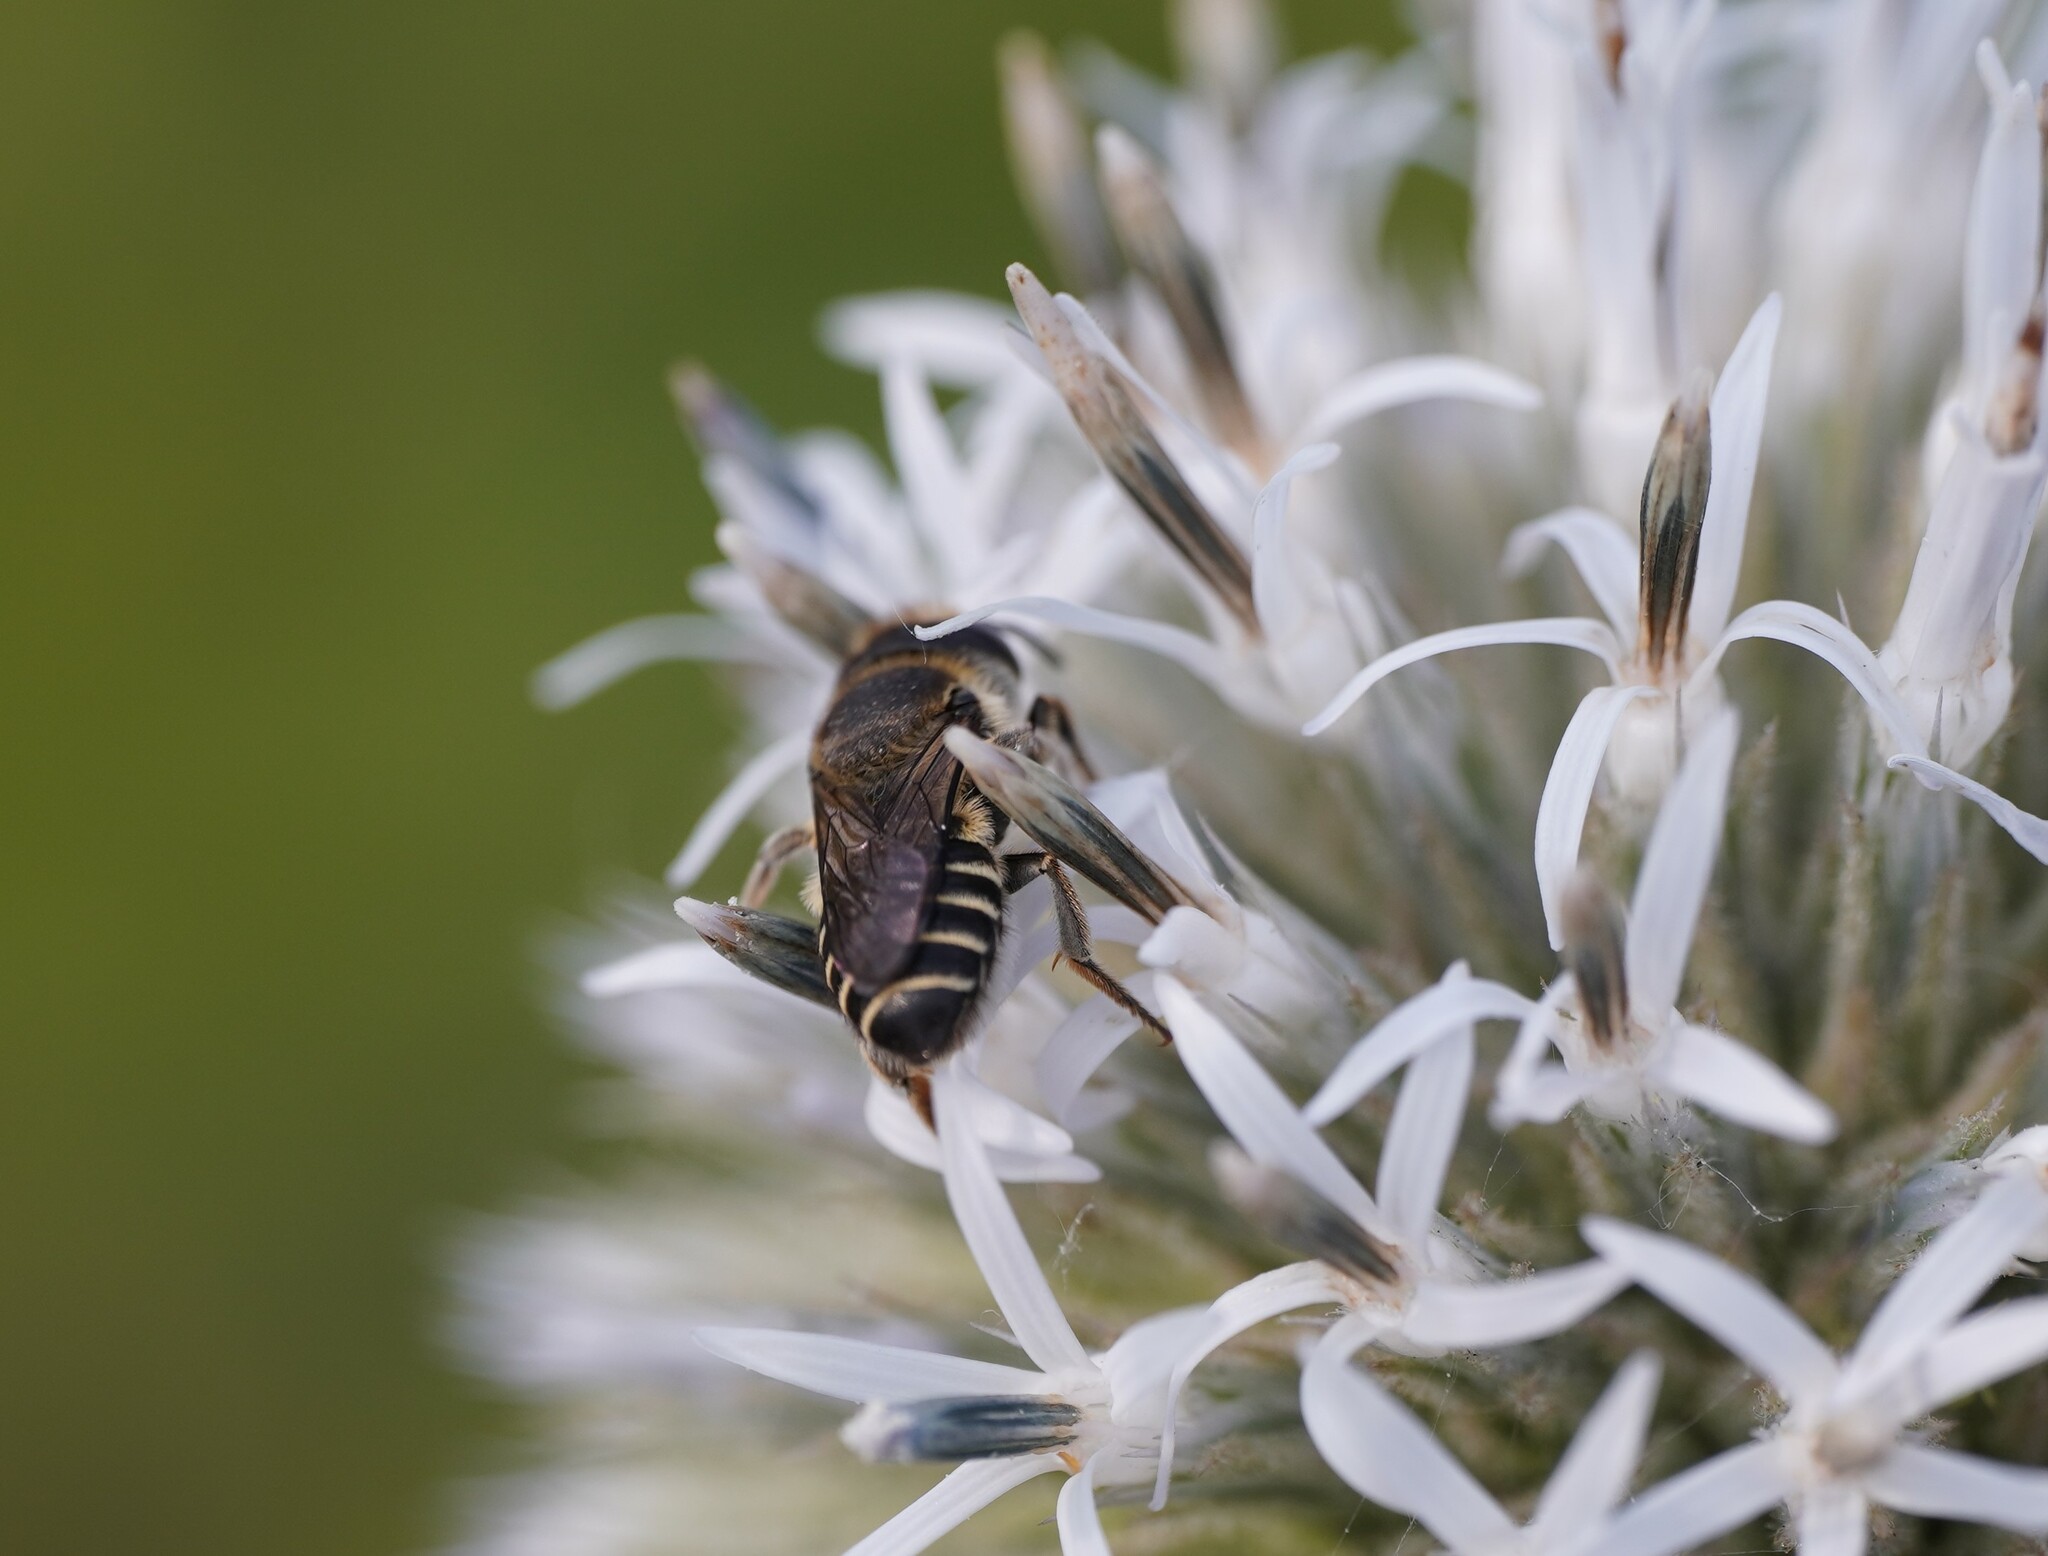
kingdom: Animalia
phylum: Arthropoda
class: Insecta
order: Hymenoptera
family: Megachilidae
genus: Megachile
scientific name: Megachile rotundata
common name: Alfalfa leafcutting bee
